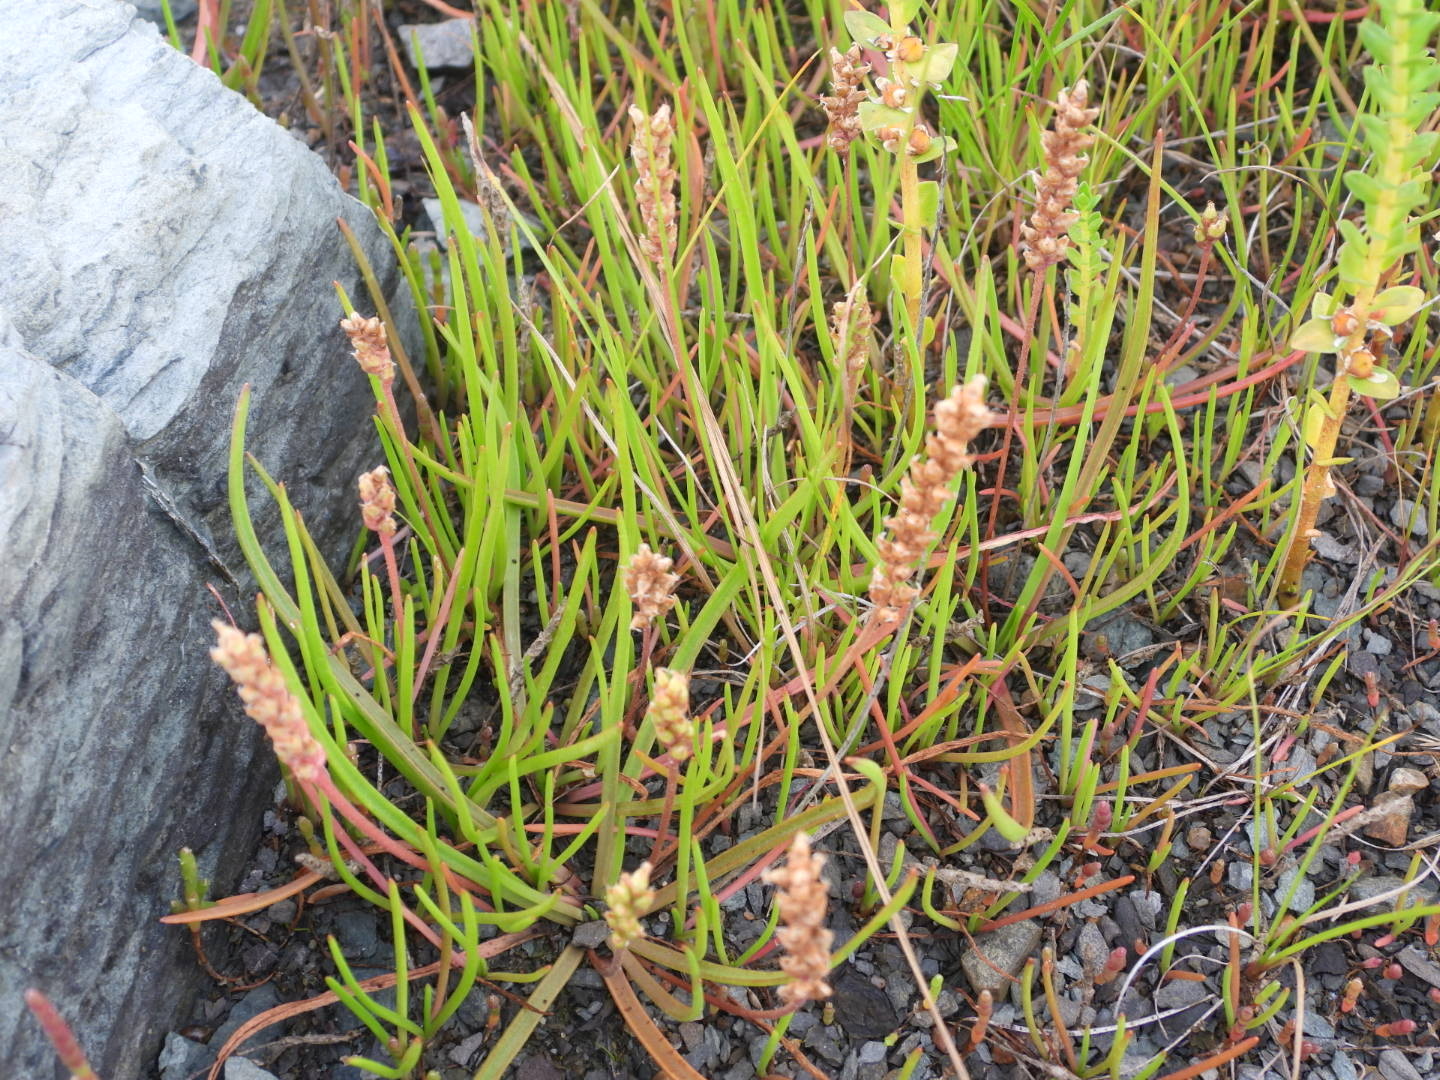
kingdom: Plantae
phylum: Tracheophyta
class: Magnoliopsida
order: Lamiales
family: Plantaginaceae
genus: Plantago
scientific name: Plantago maritima
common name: Sea plantain
